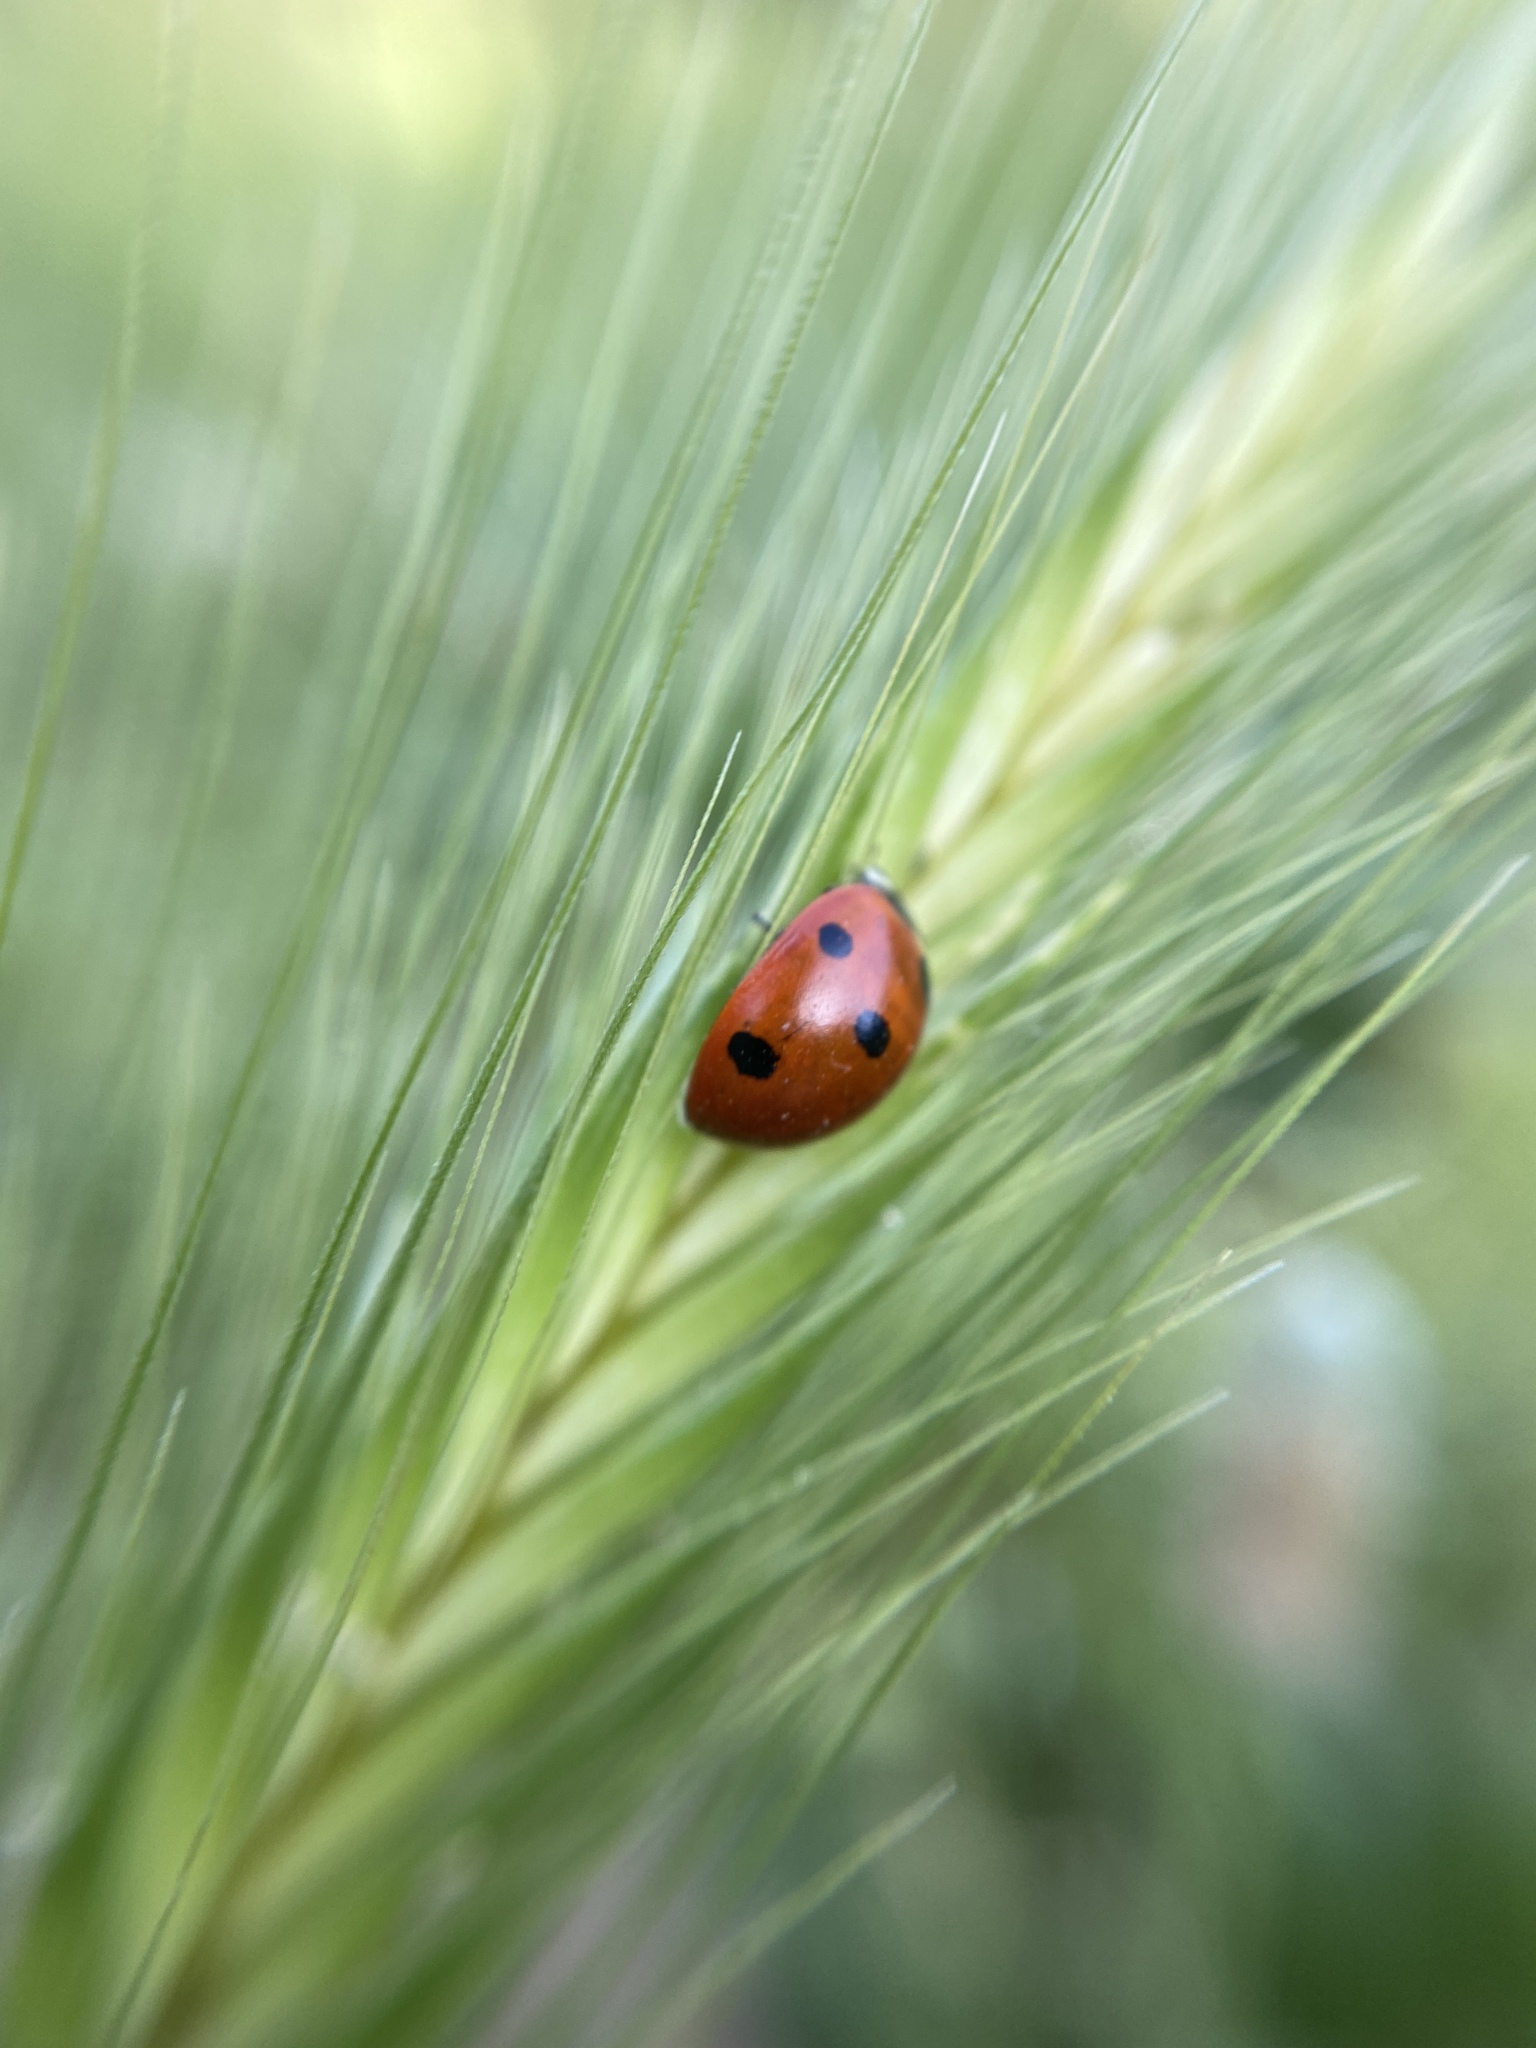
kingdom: Animalia
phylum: Arthropoda
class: Insecta
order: Coleoptera
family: Coccinellidae
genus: Coccinella
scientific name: Coccinella septempunctata
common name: Sevenspotted lady beetle
